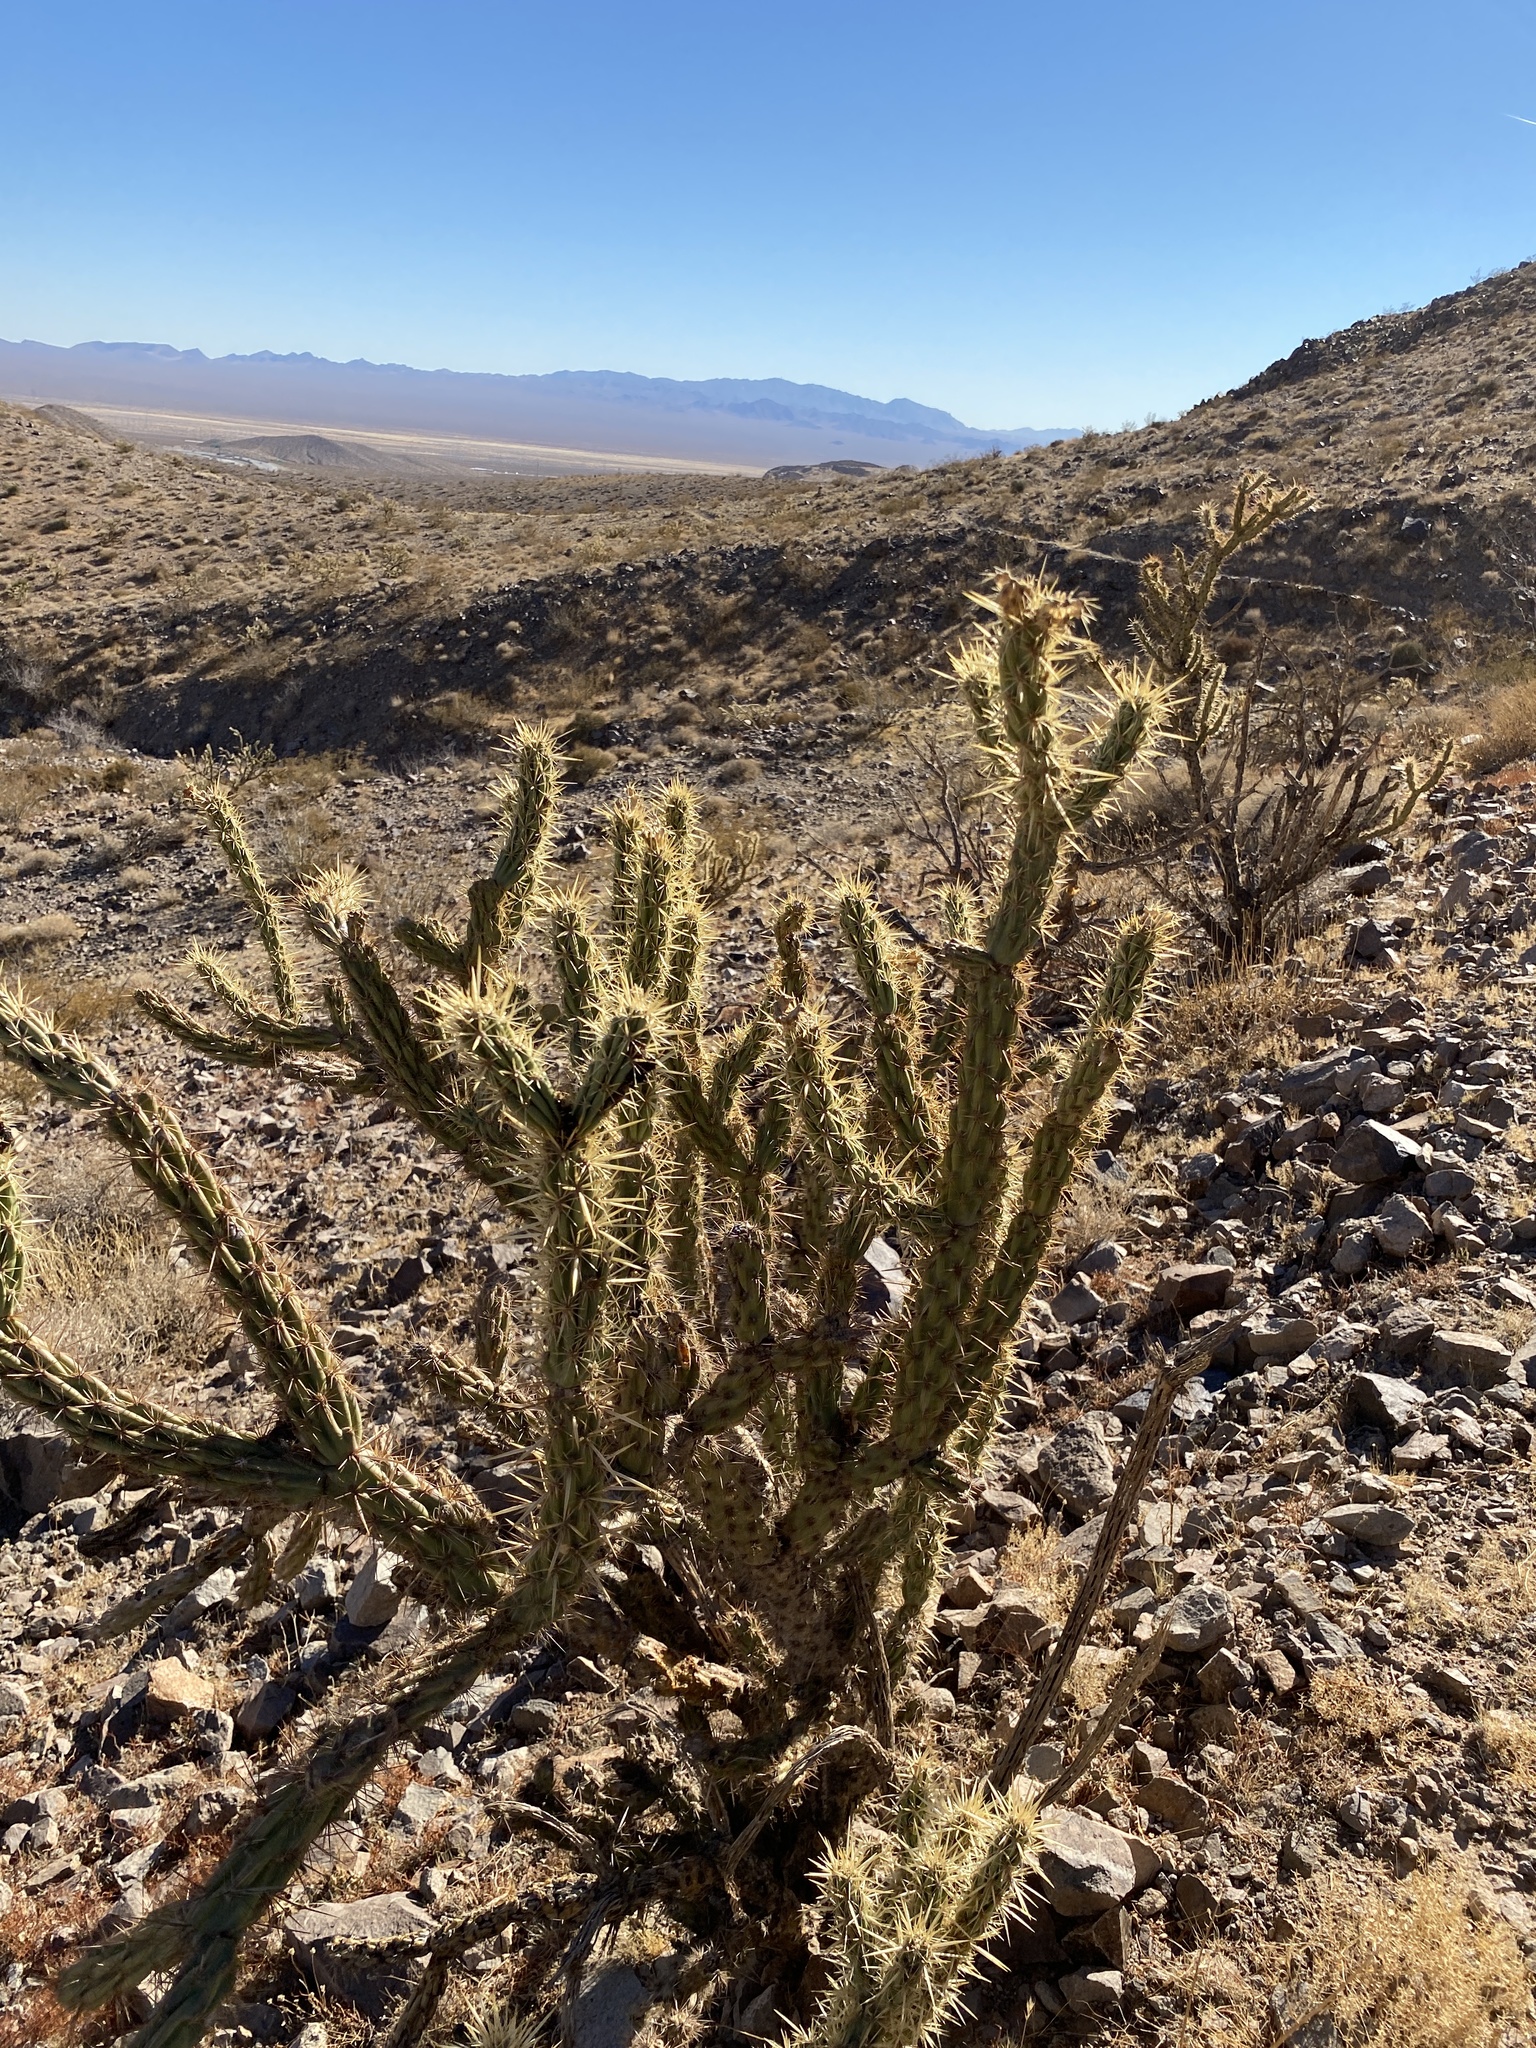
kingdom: Plantae
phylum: Tracheophyta
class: Magnoliopsida
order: Caryophyllales
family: Cactaceae
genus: Cylindropuntia
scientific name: Cylindropuntia acanthocarpa
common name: Buckhorn cholla
